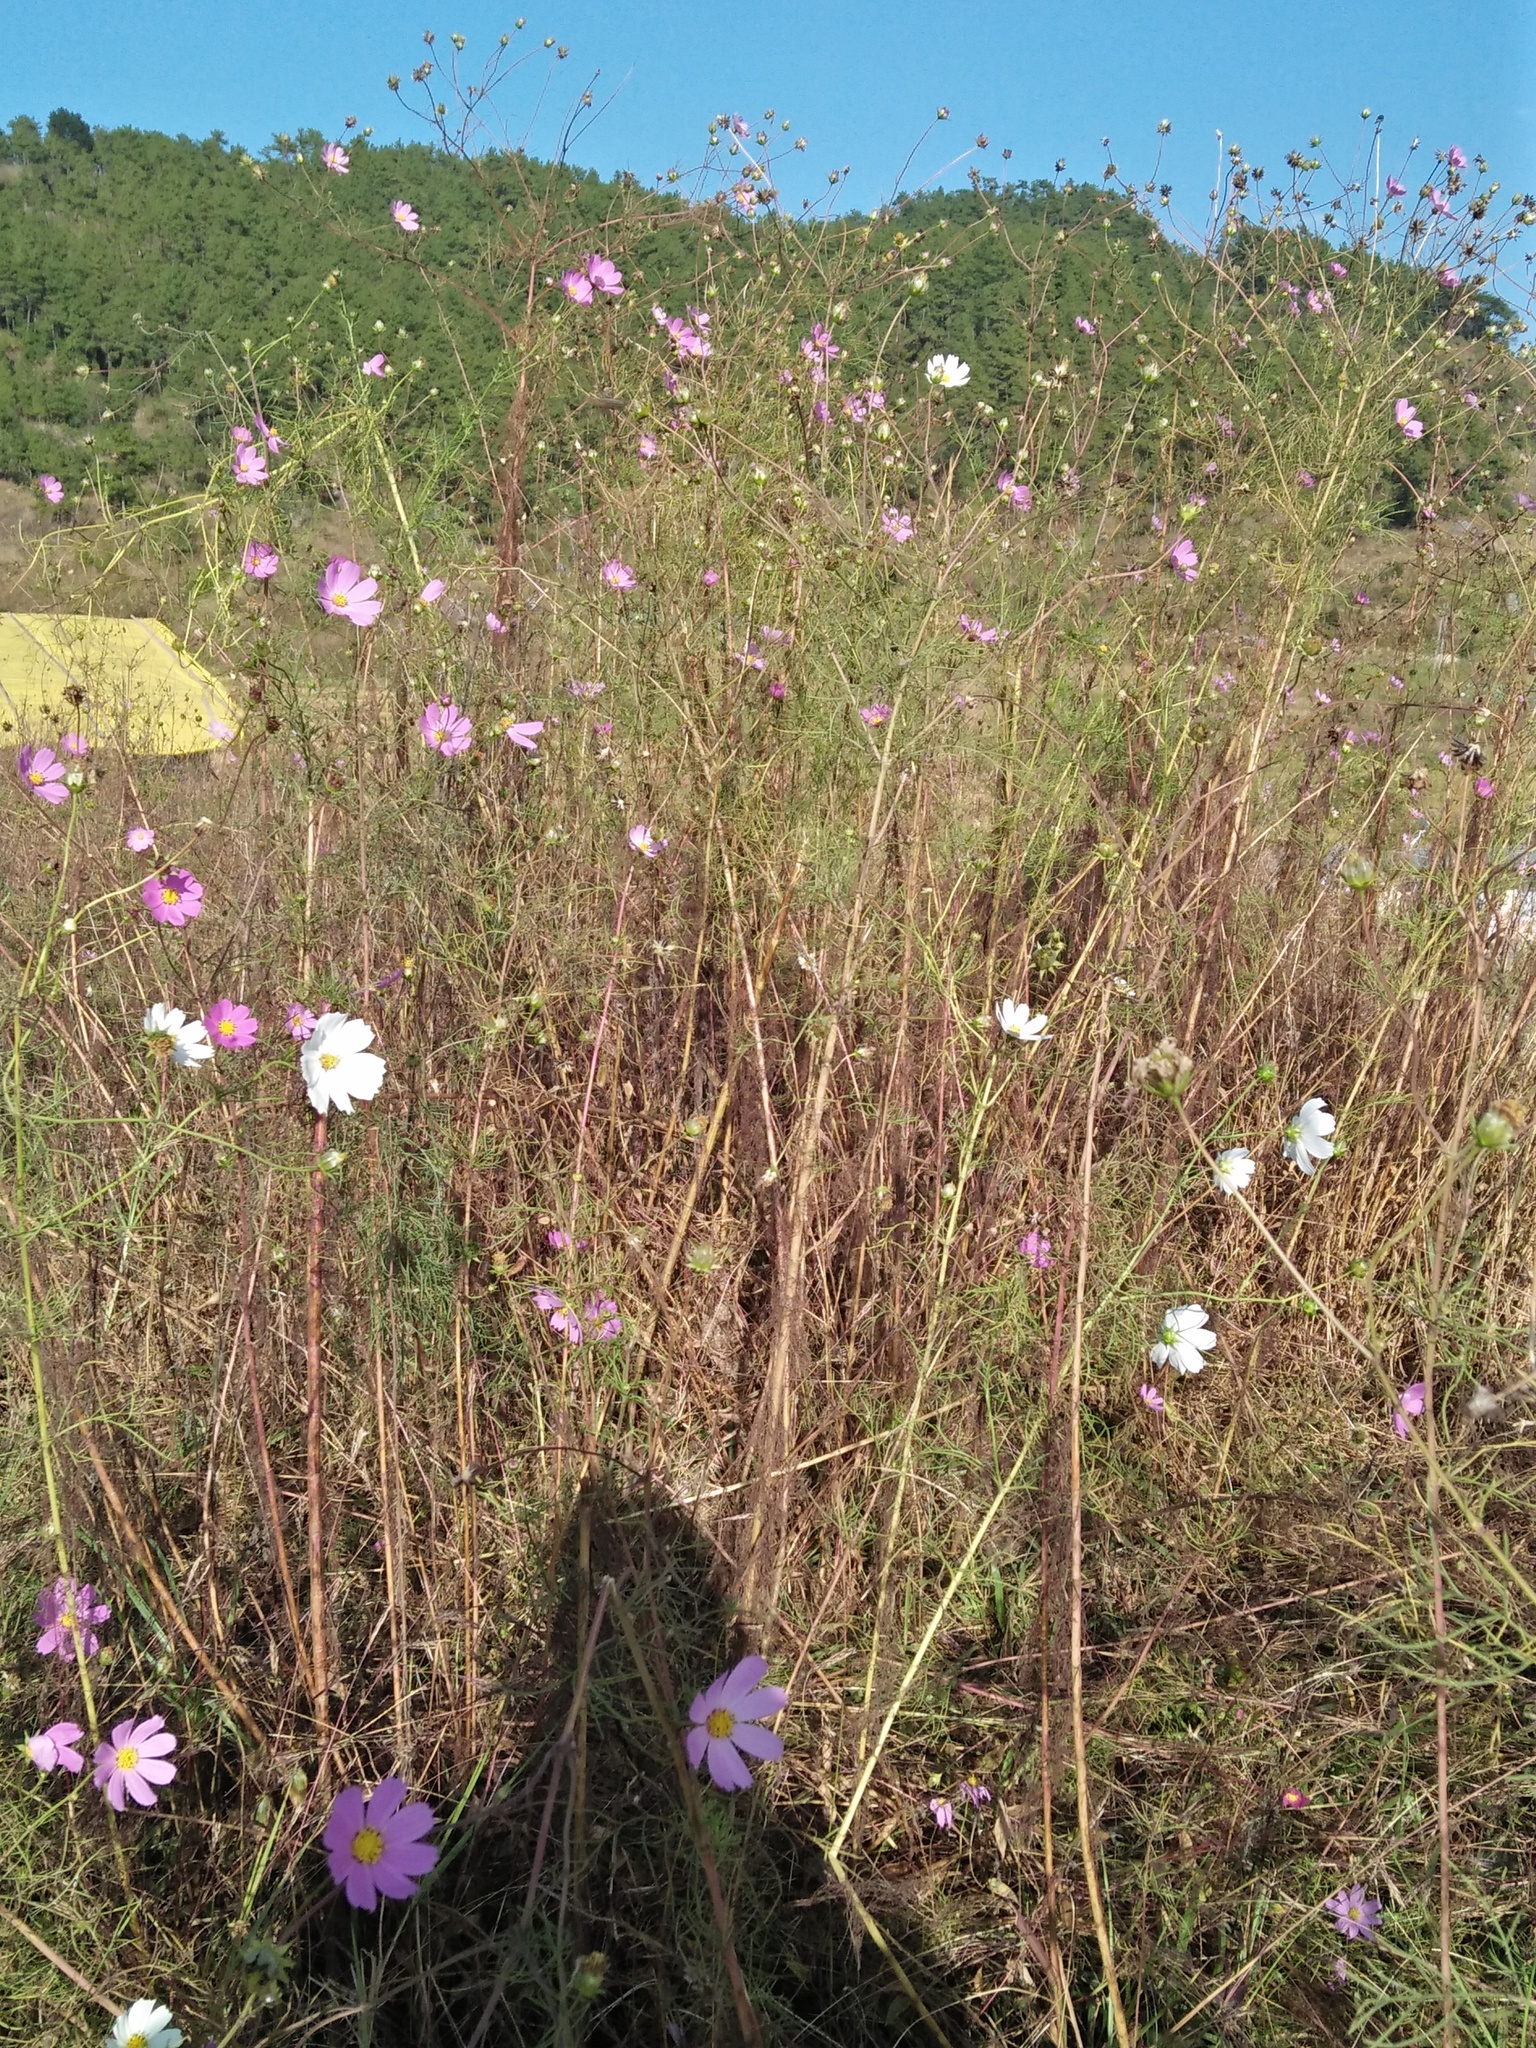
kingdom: Plantae
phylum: Tracheophyta
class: Magnoliopsida
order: Asterales
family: Asteraceae
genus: Cosmos
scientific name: Cosmos bipinnatus
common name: Garden cosmos
